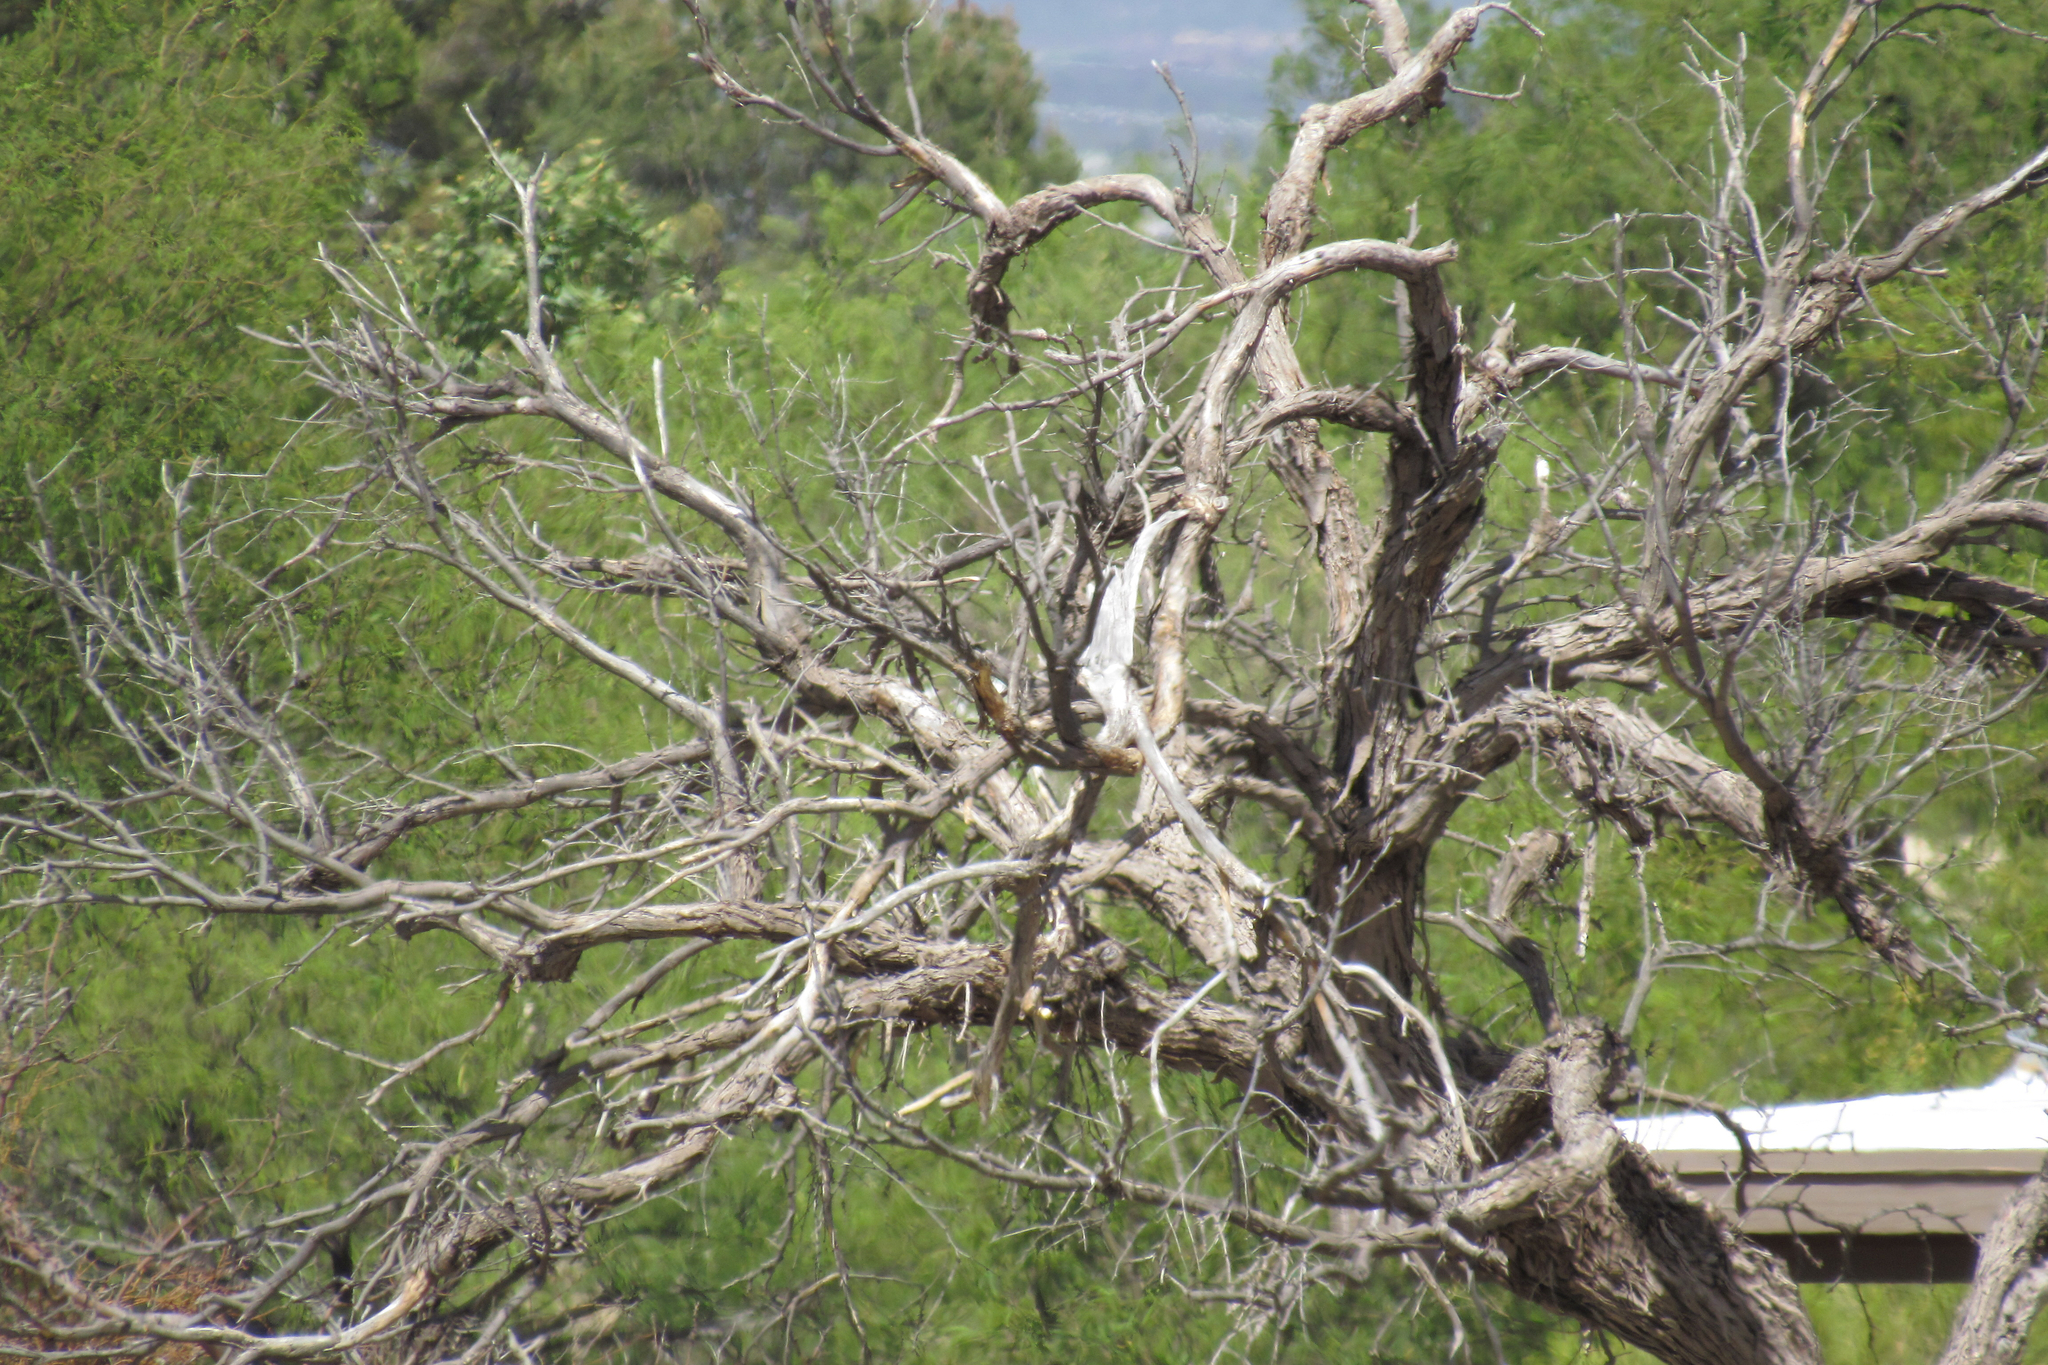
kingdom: Animalia
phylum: Chordata
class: Aves
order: Columbiformes
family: Columbidae
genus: Zenaida
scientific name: Zenaida macroura
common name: Mourning dove
